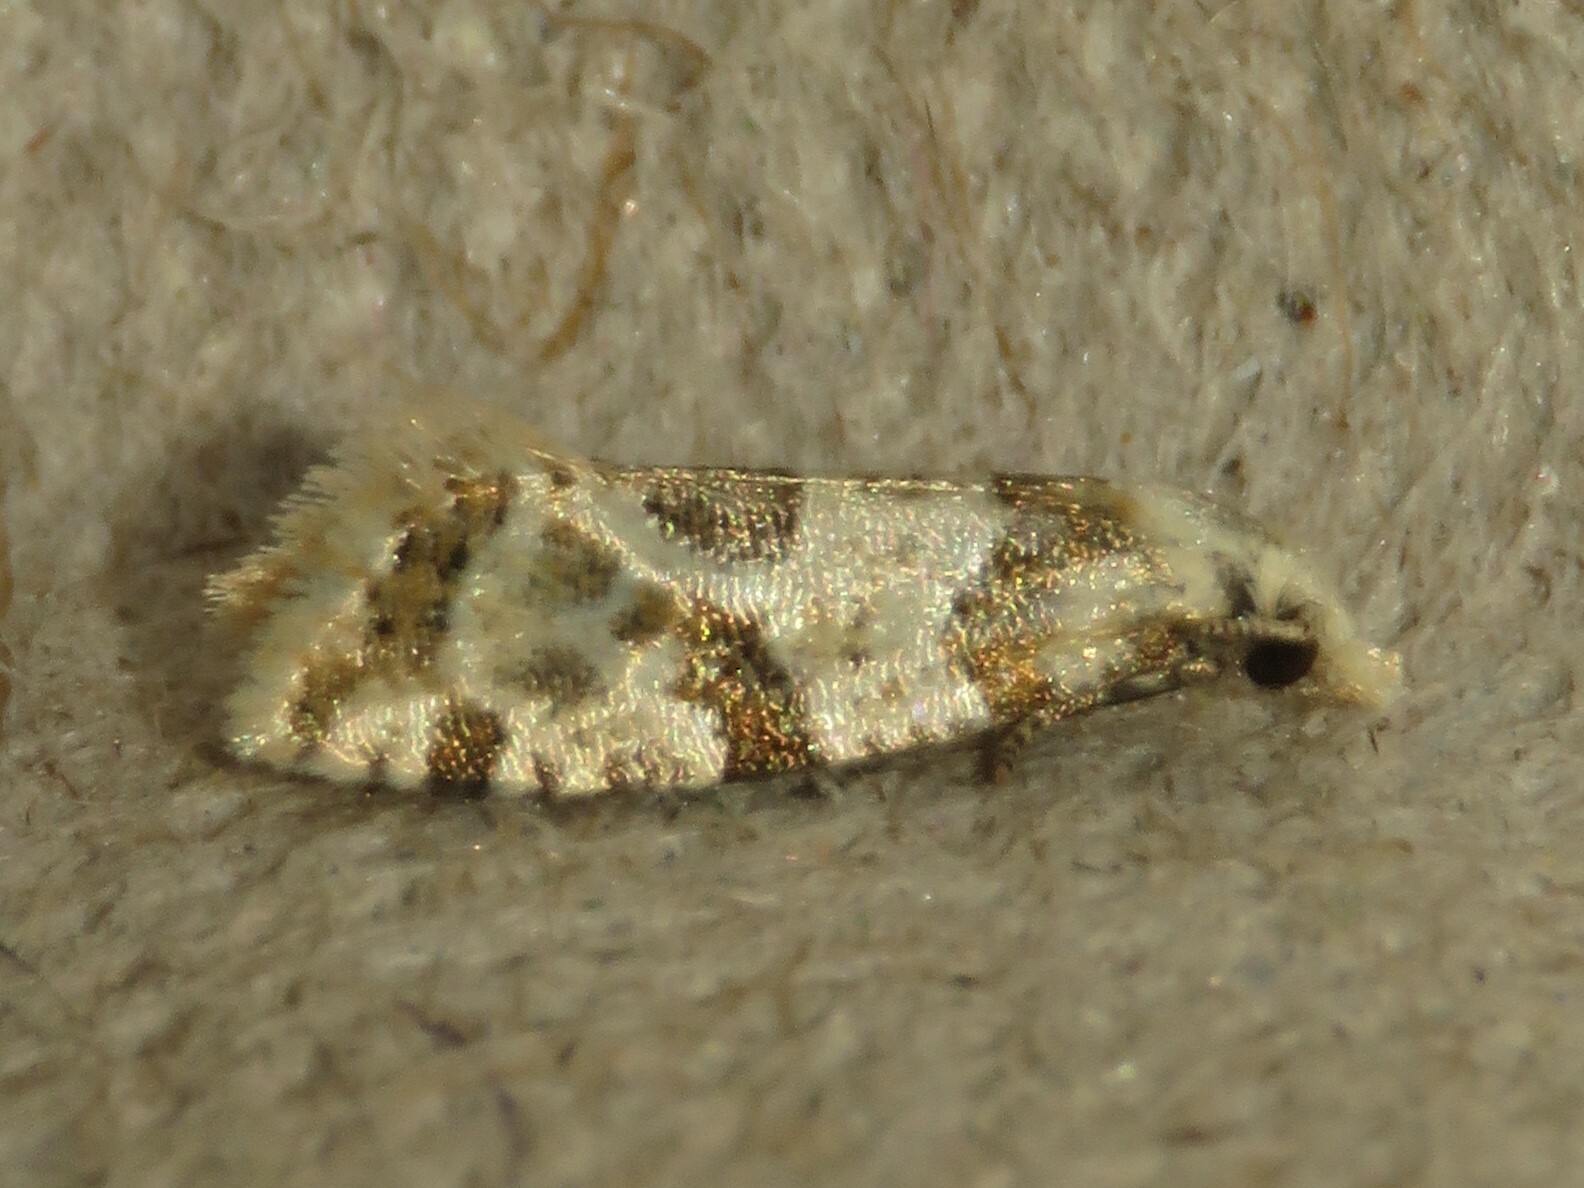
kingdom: Animalia
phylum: Arthropoda
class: Insecta
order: Lepidoptera
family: Tortricidae
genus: Aethes
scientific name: Aethes argentilimitana
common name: Silver-bordered aethes
